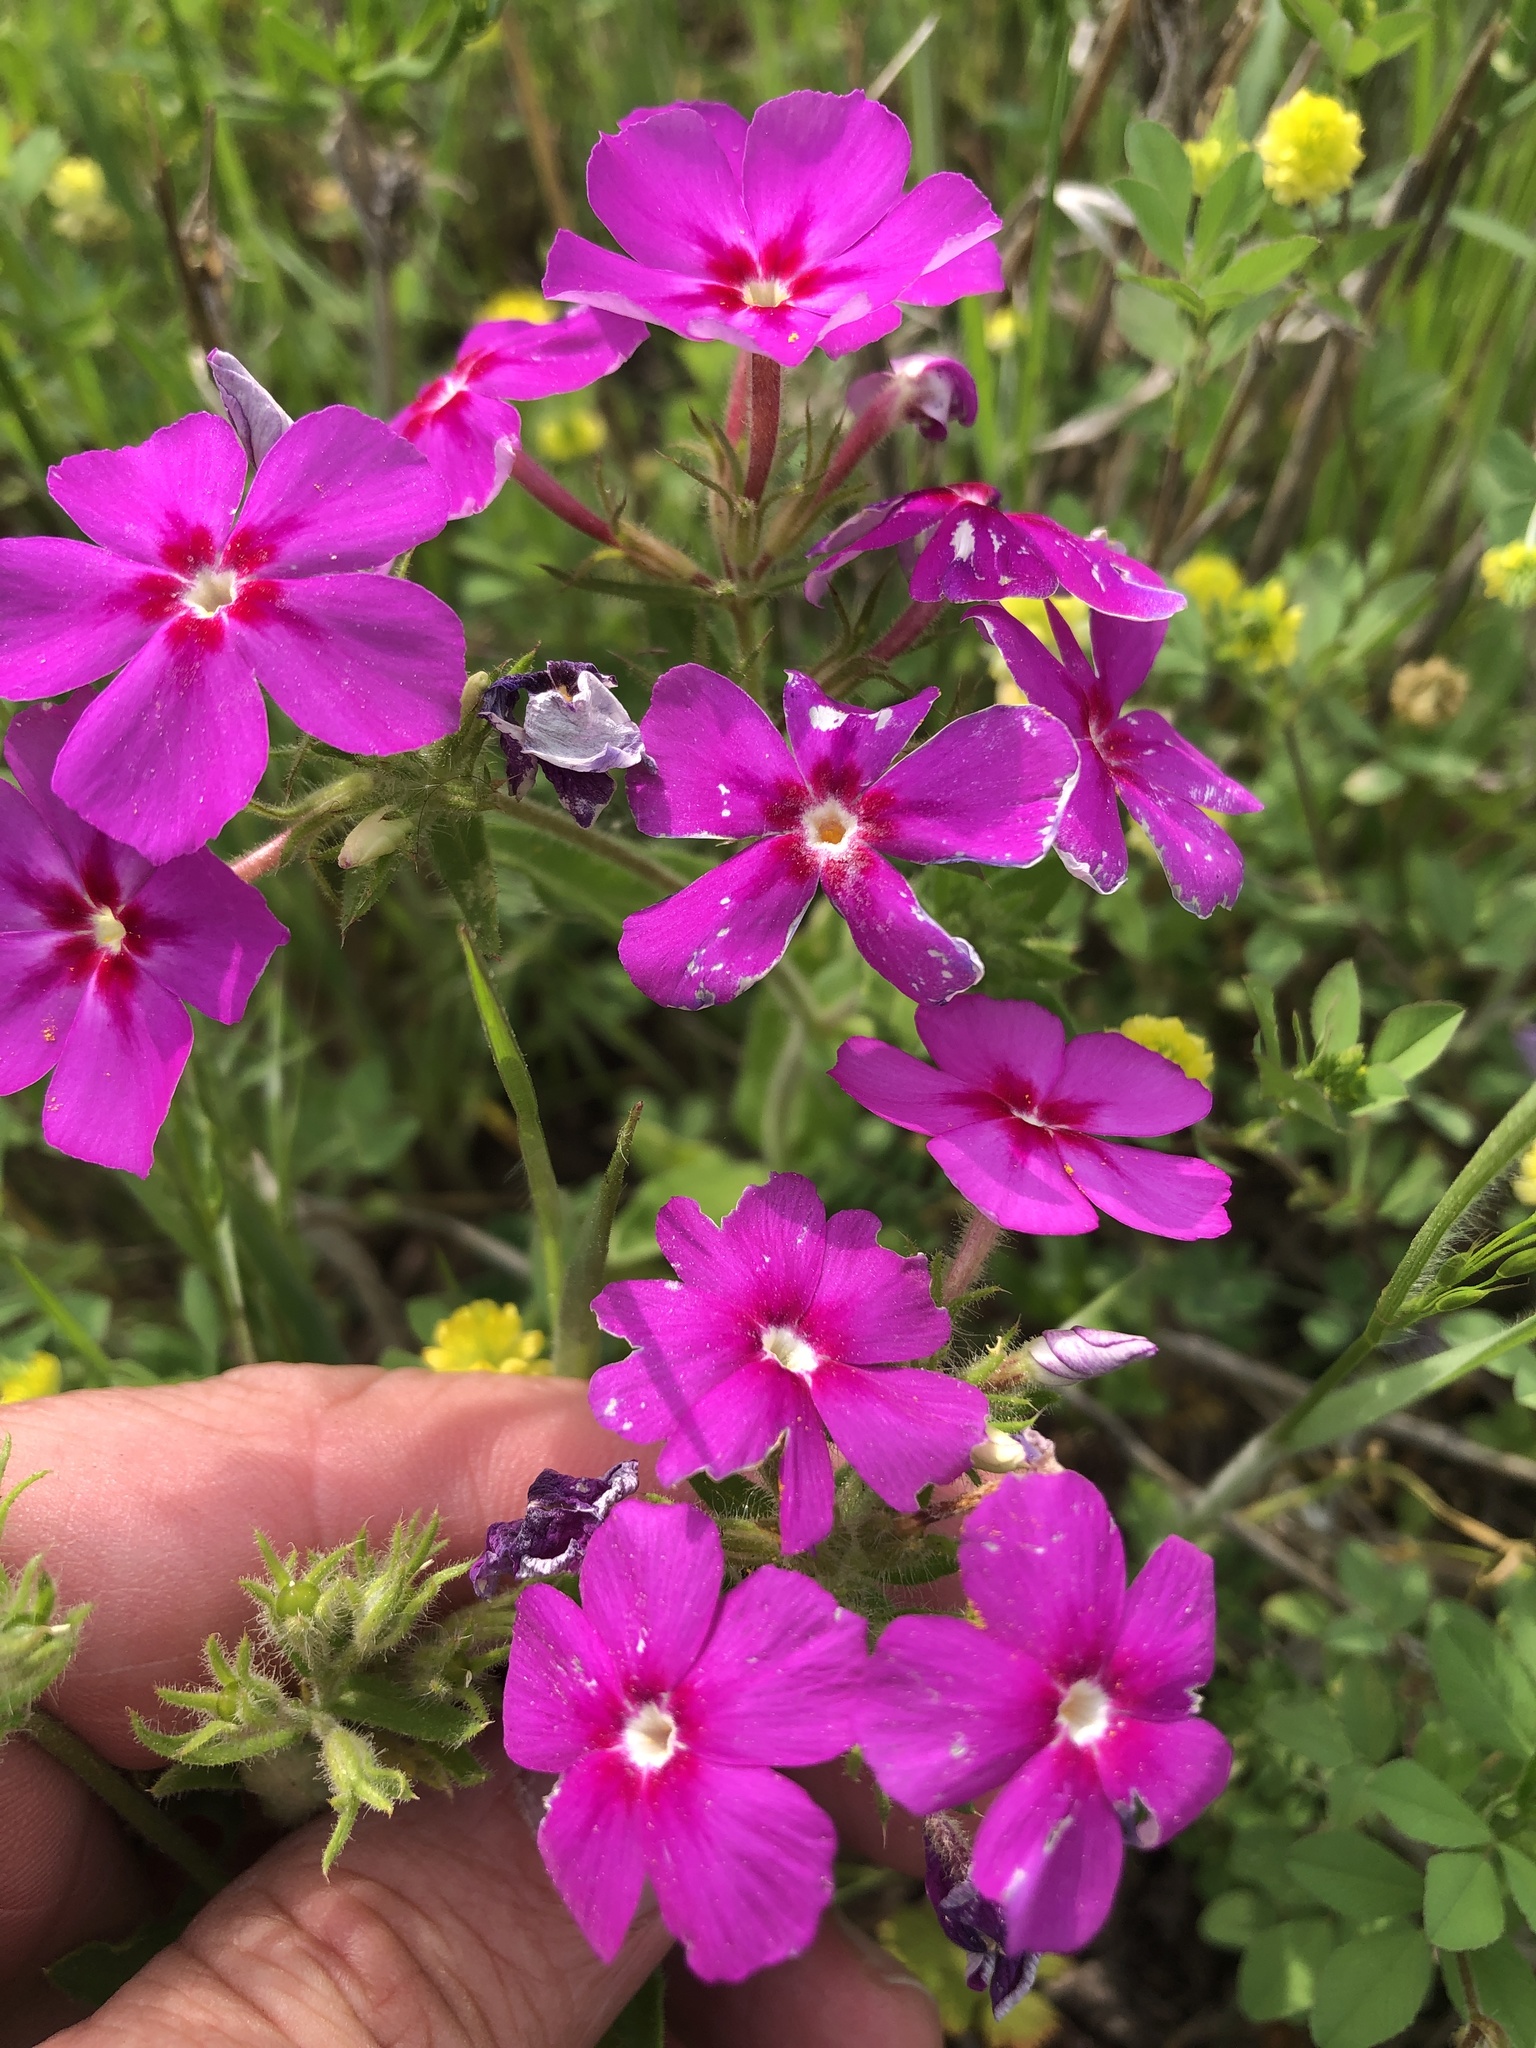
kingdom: Plantae
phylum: Tracheophyta
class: Magnoliopsida
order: Ericales
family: Polemoniaceae
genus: Phlox
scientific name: Phlox drummondii
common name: Drummond's phlox
